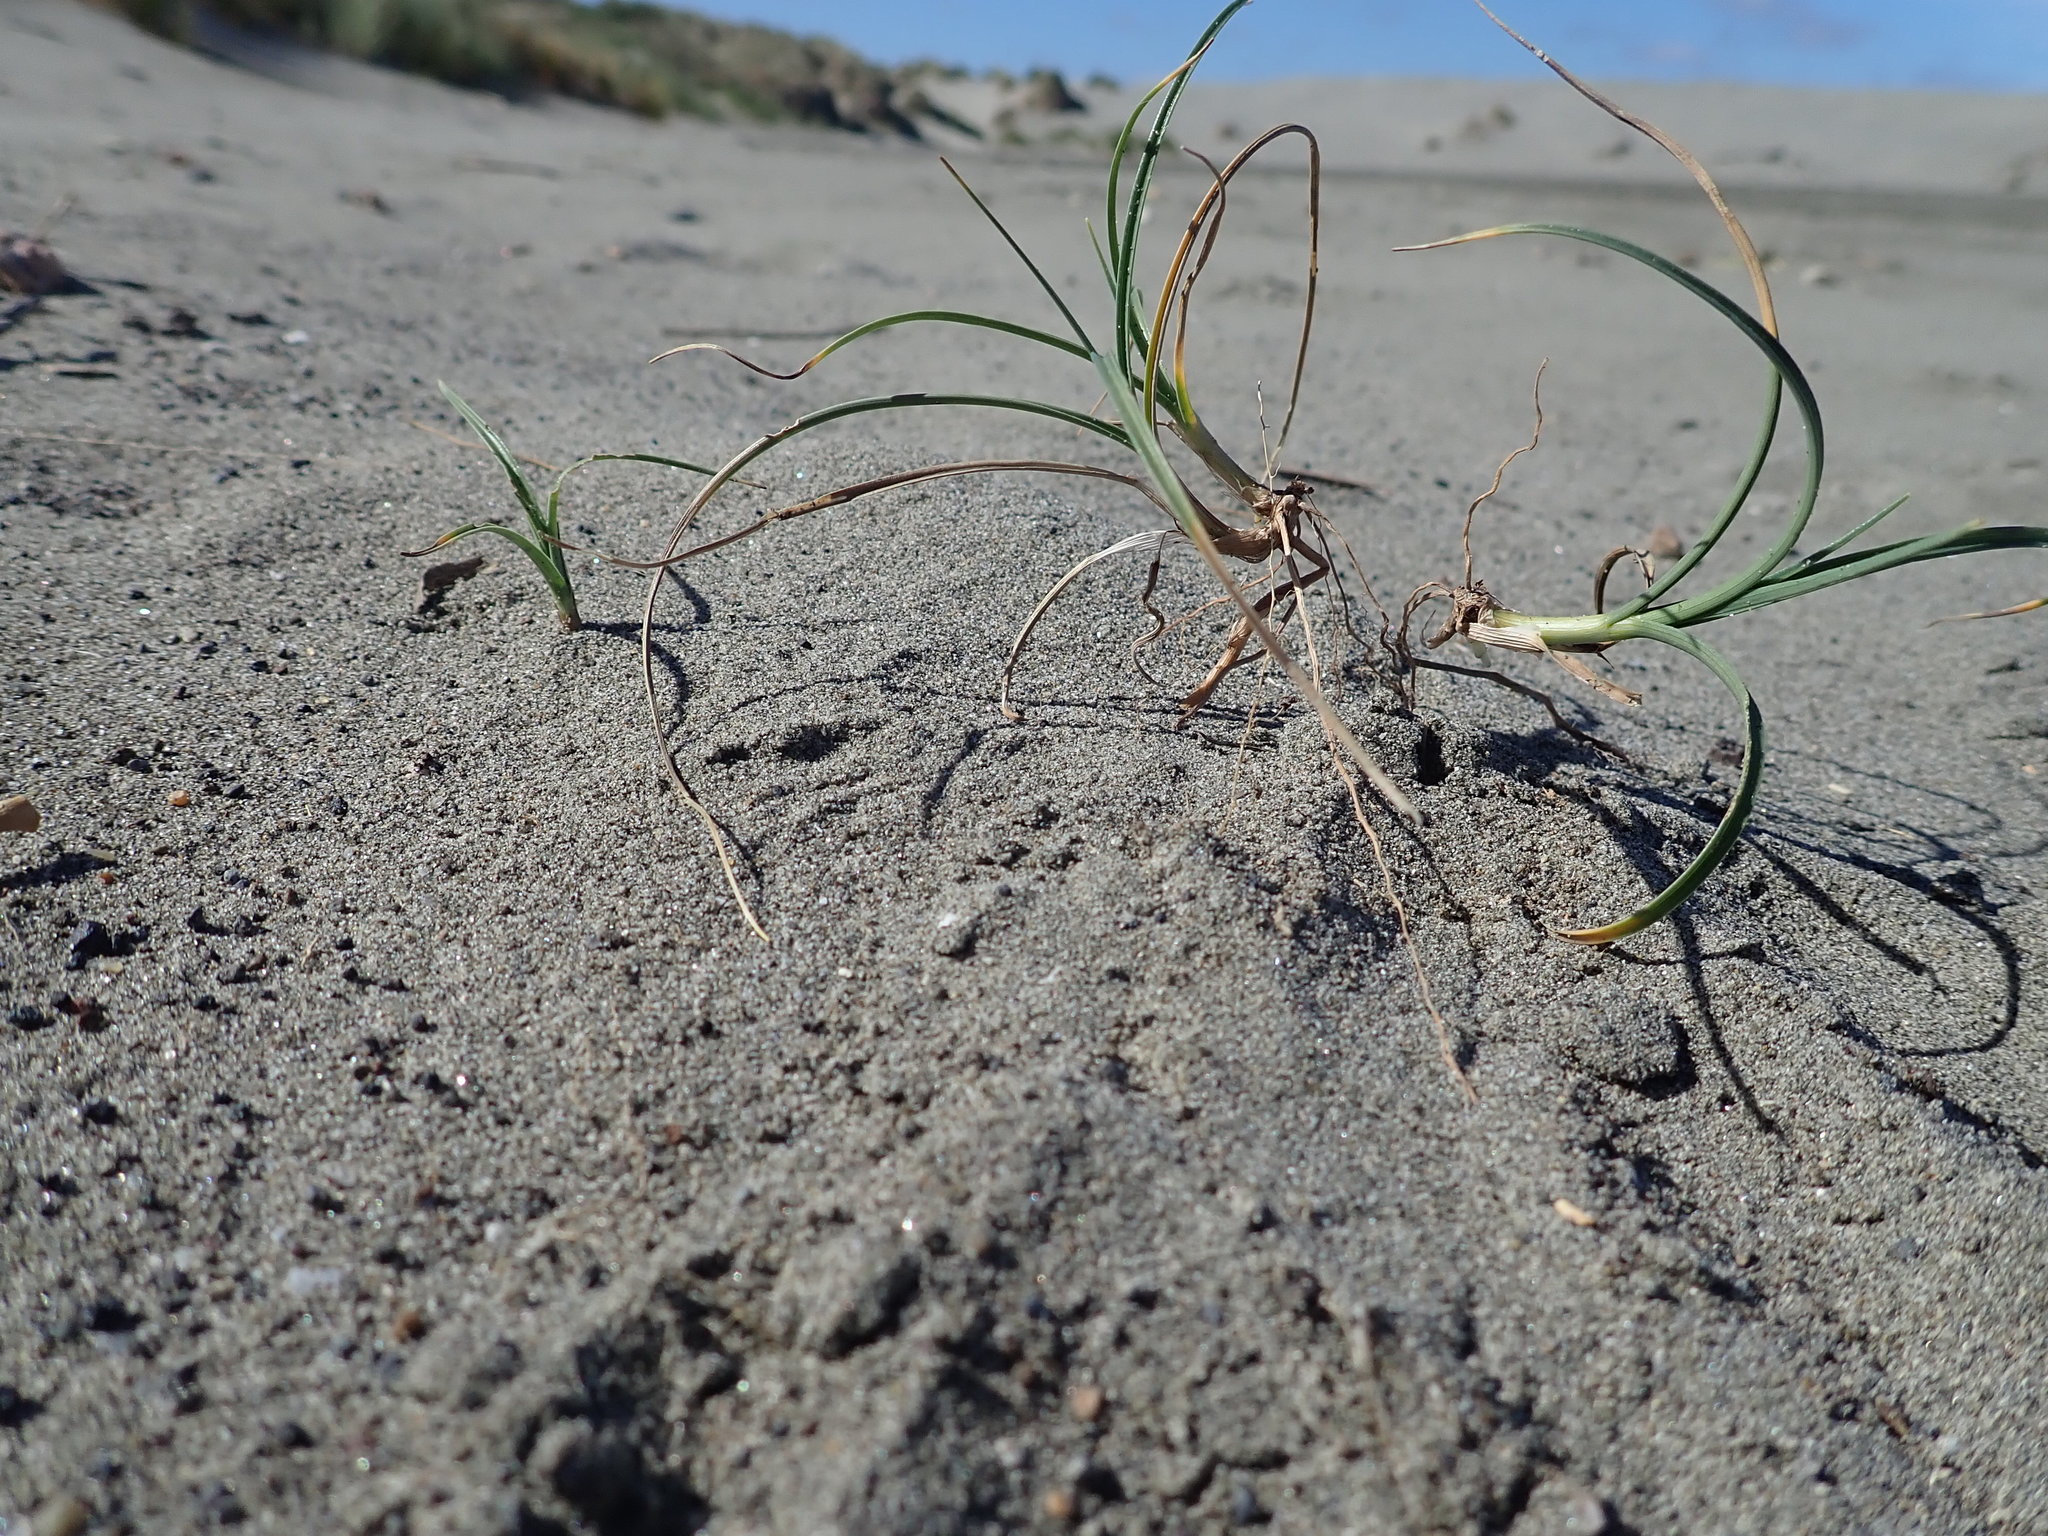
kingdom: Plantae
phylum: Tracheophyta
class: Liliopsida
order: Poales
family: Cyperaceae
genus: Carex
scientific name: Carex pumila
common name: Dwarf sedge
